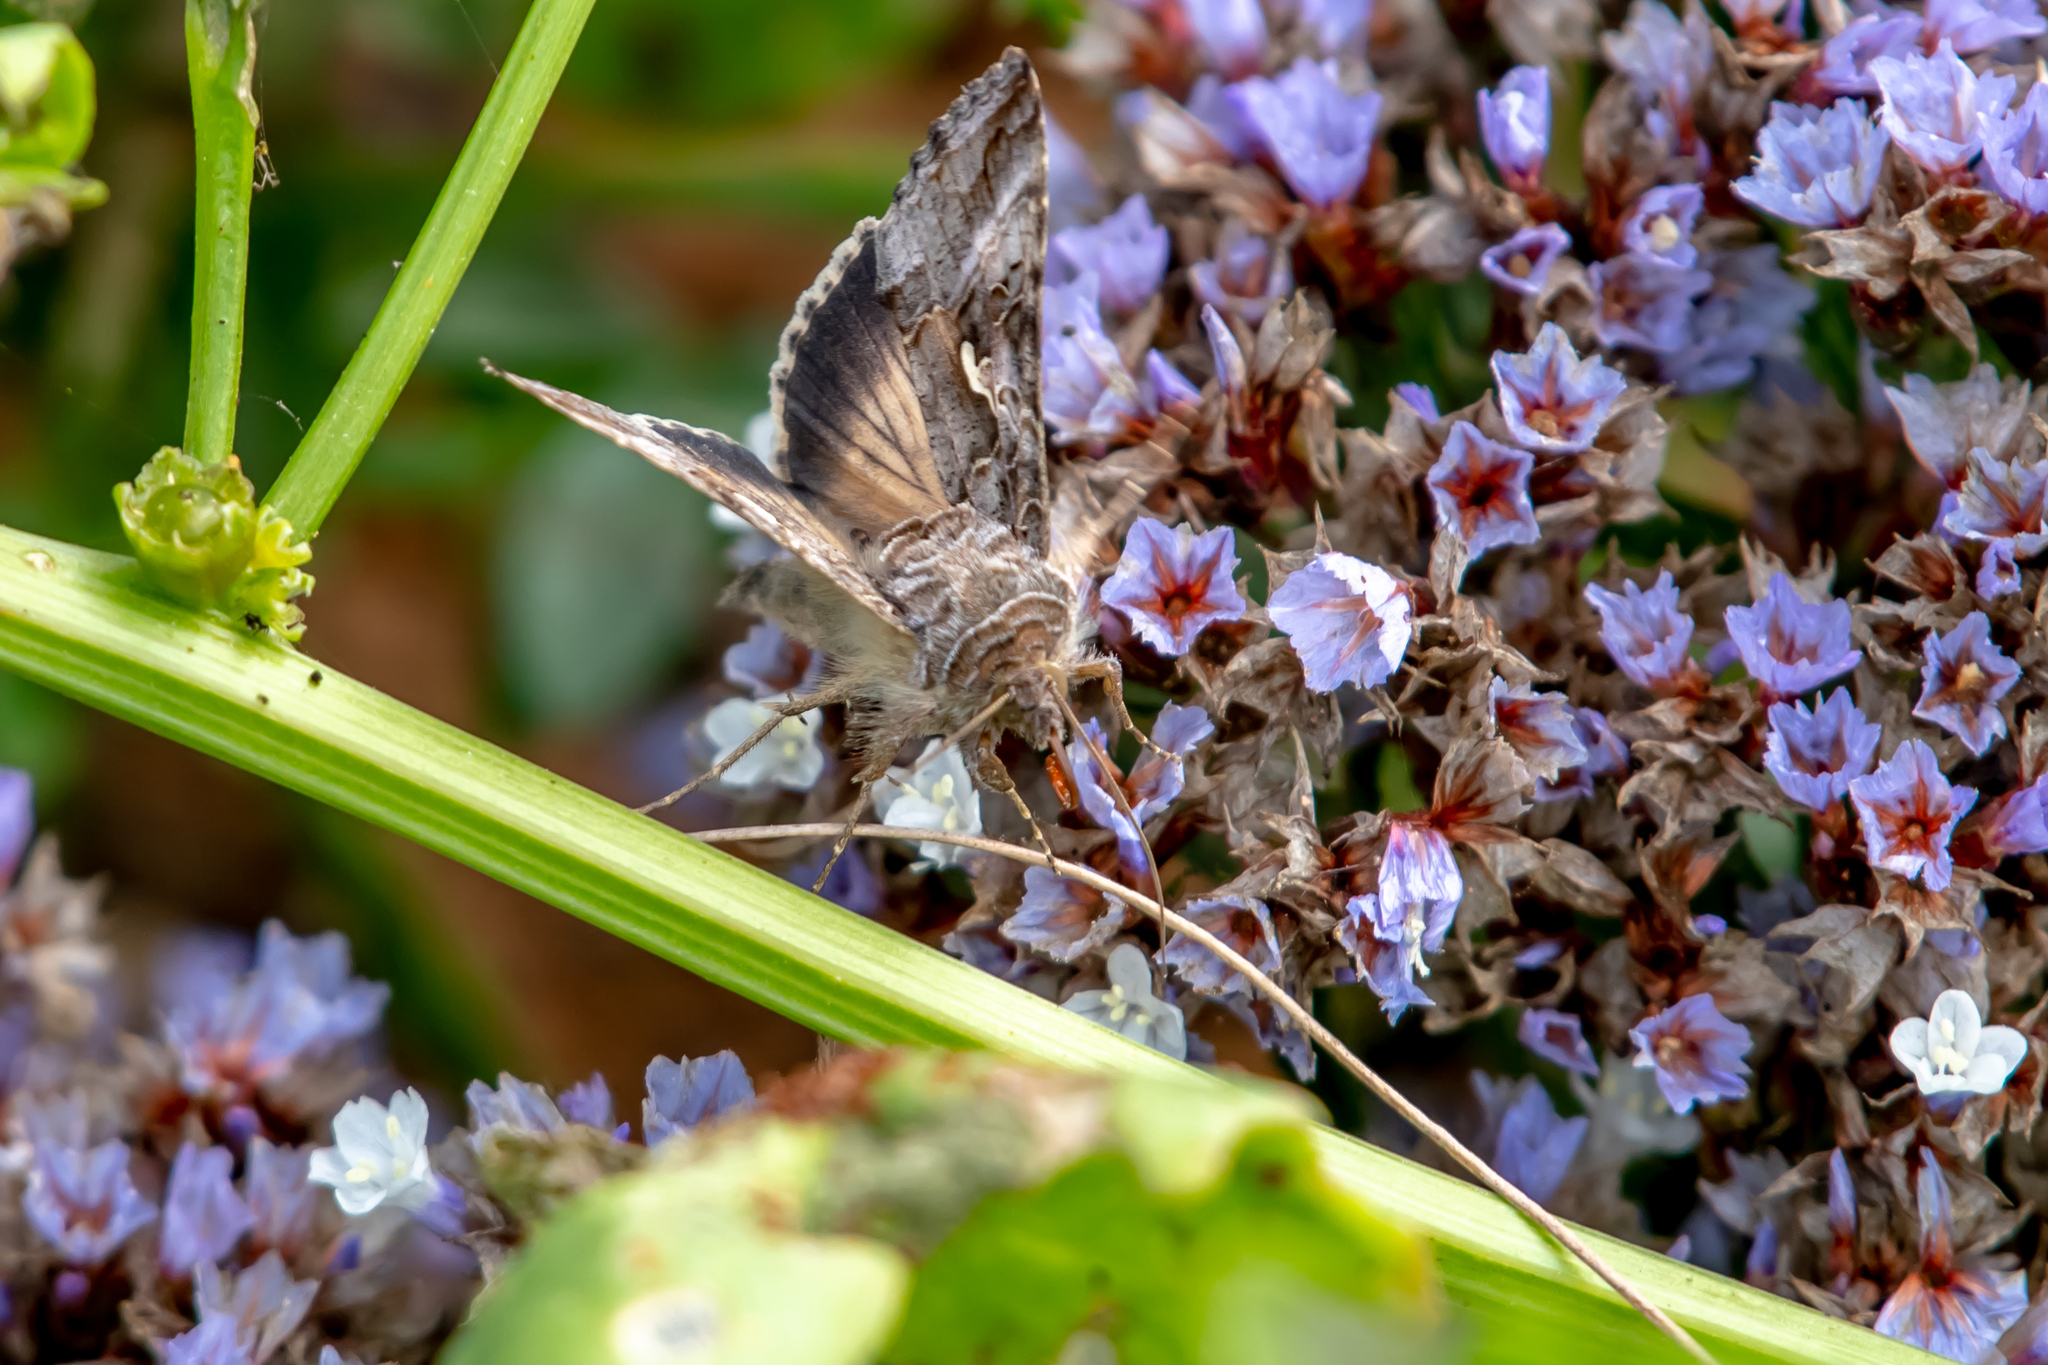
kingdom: Animalia
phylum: Arthropoda
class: Insecta
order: Lepidoptera
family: Noctuidae
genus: Autographa
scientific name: Autographa gamma
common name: Silver y
